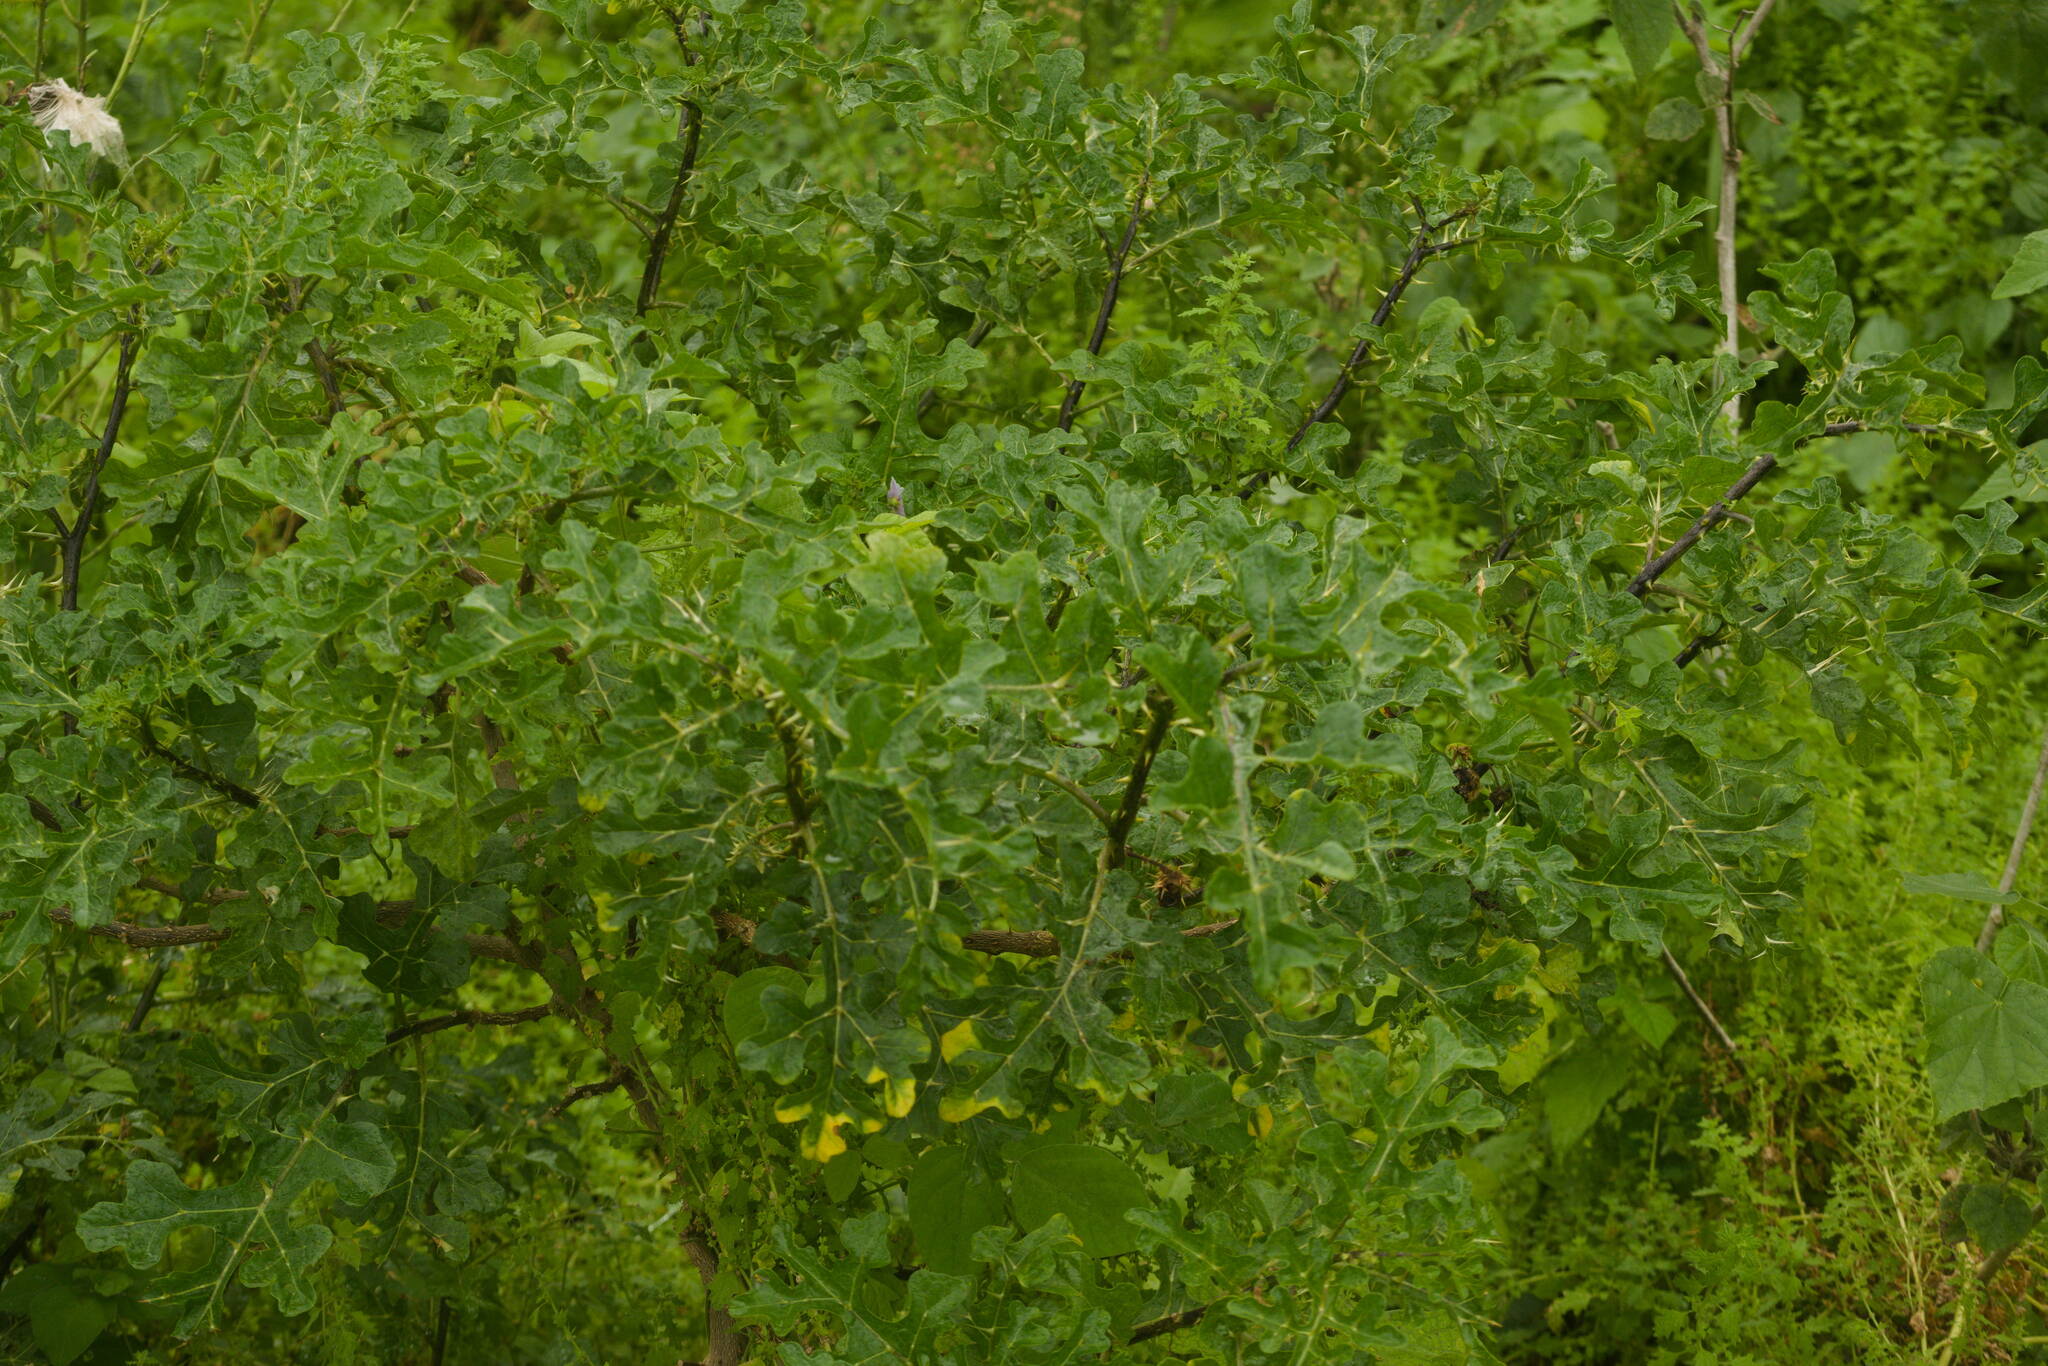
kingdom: Plantae
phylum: Tracheophyta
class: Magnoliopsida
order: Solanales
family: Solanaceae
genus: Solanum
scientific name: Solanum linnaeanum
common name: Nightshade
